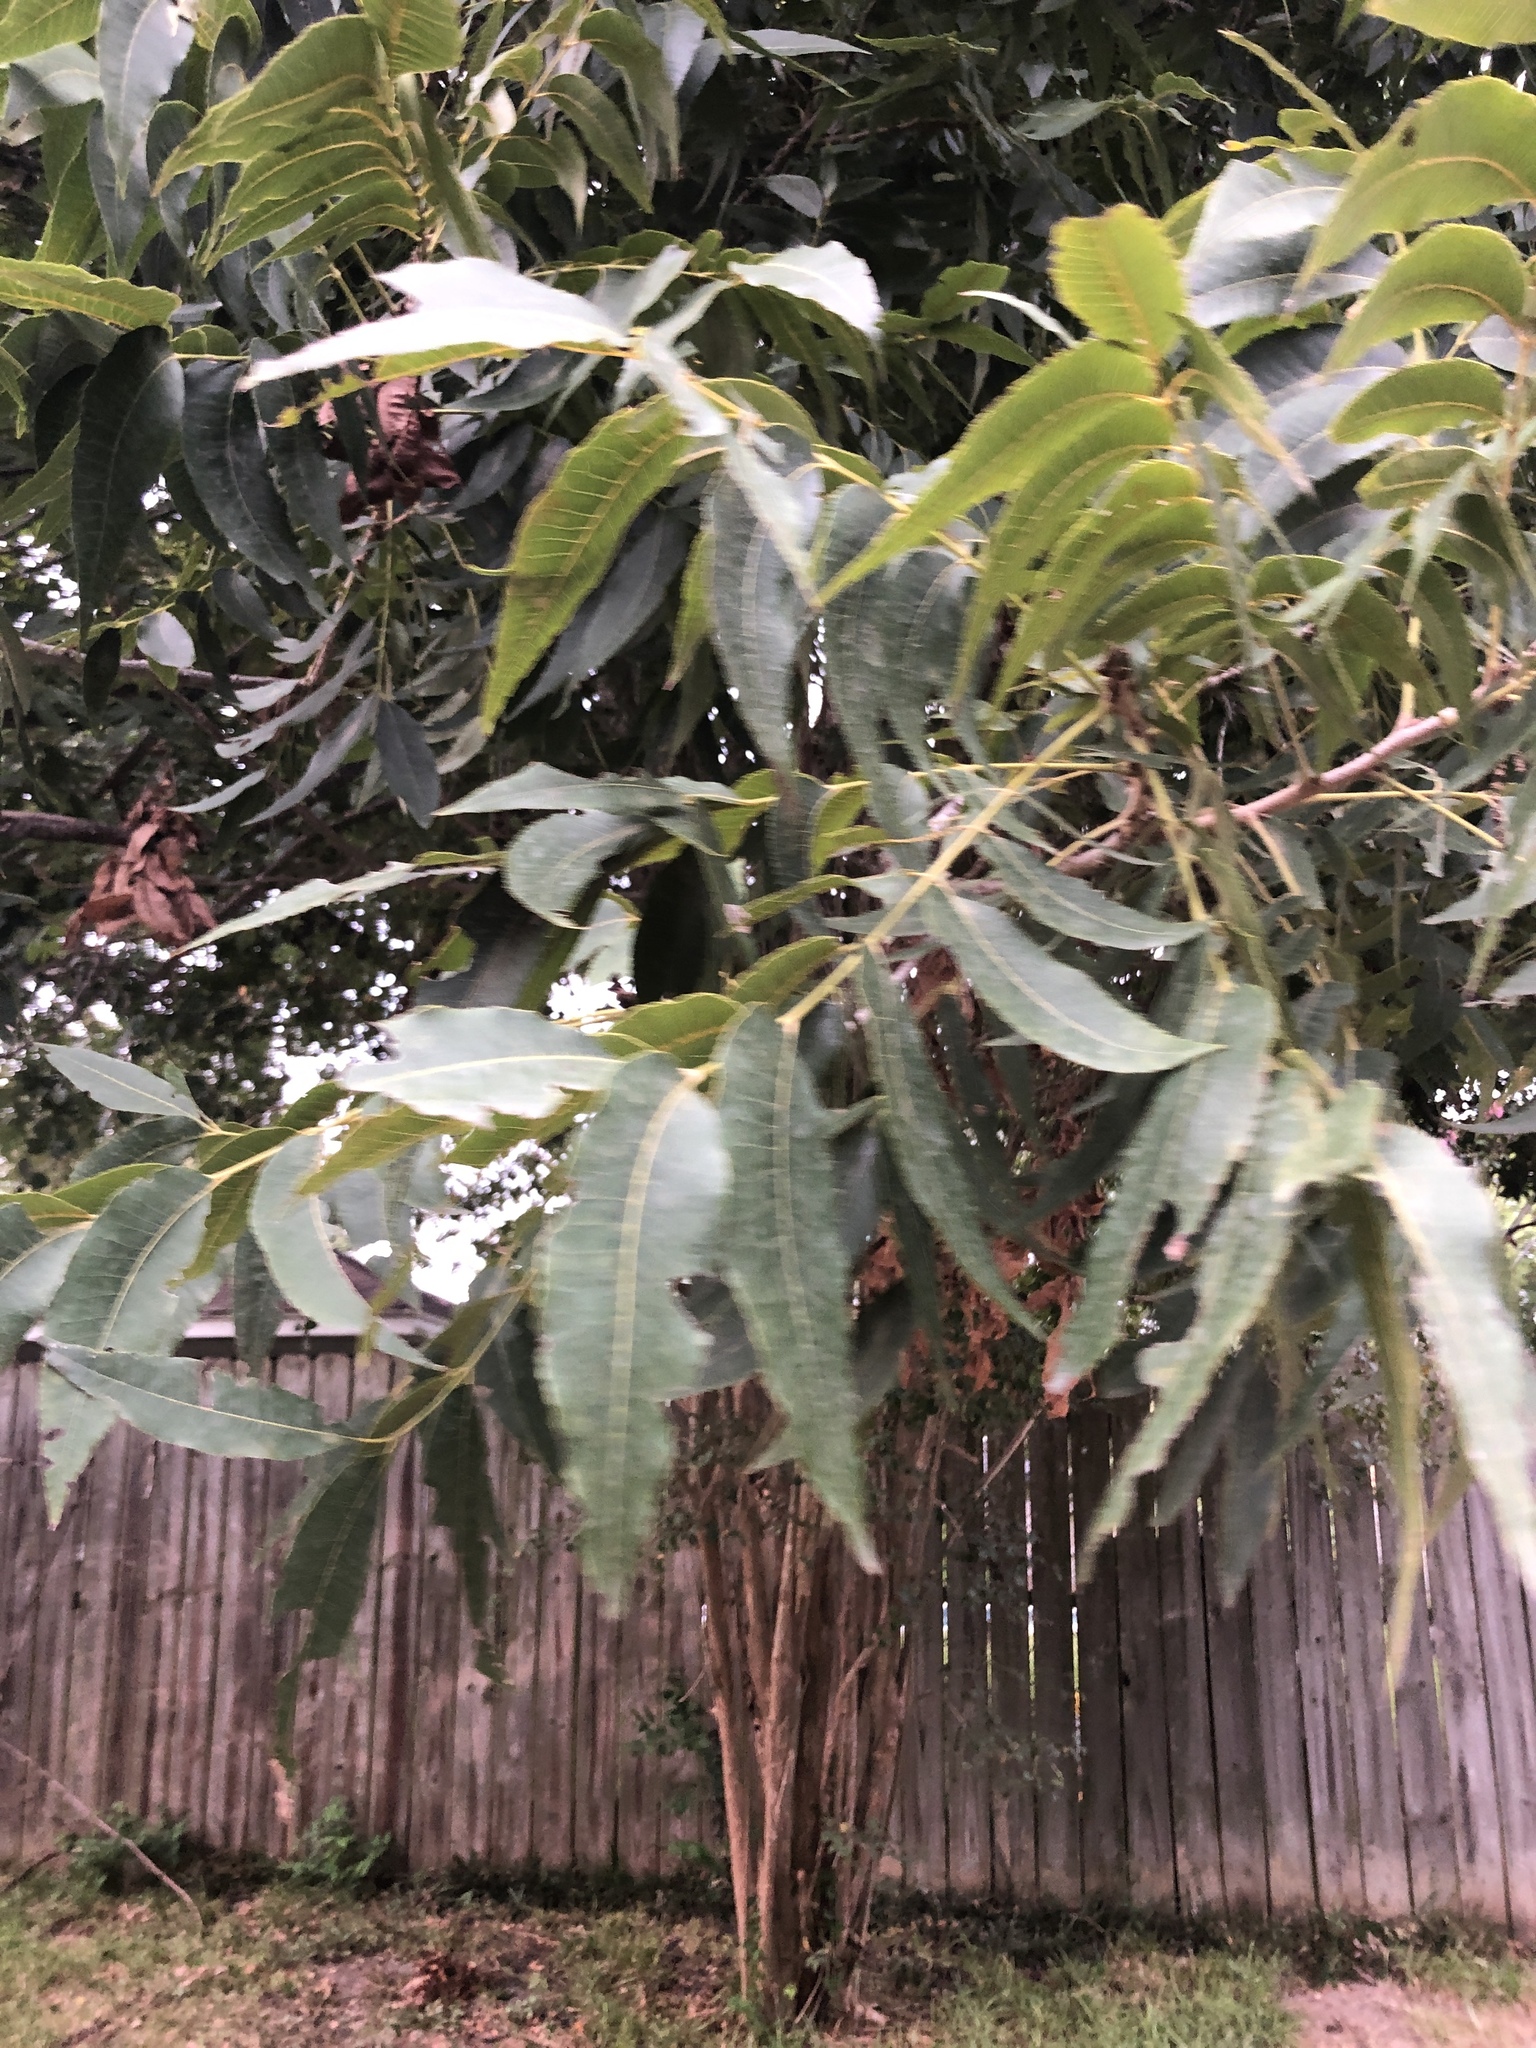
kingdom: Plantae
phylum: Tracheophyta
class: Magnoliopsida
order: Fagales
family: Juglandaceae
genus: Carya
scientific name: Carya illinoinensis
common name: Pecan
